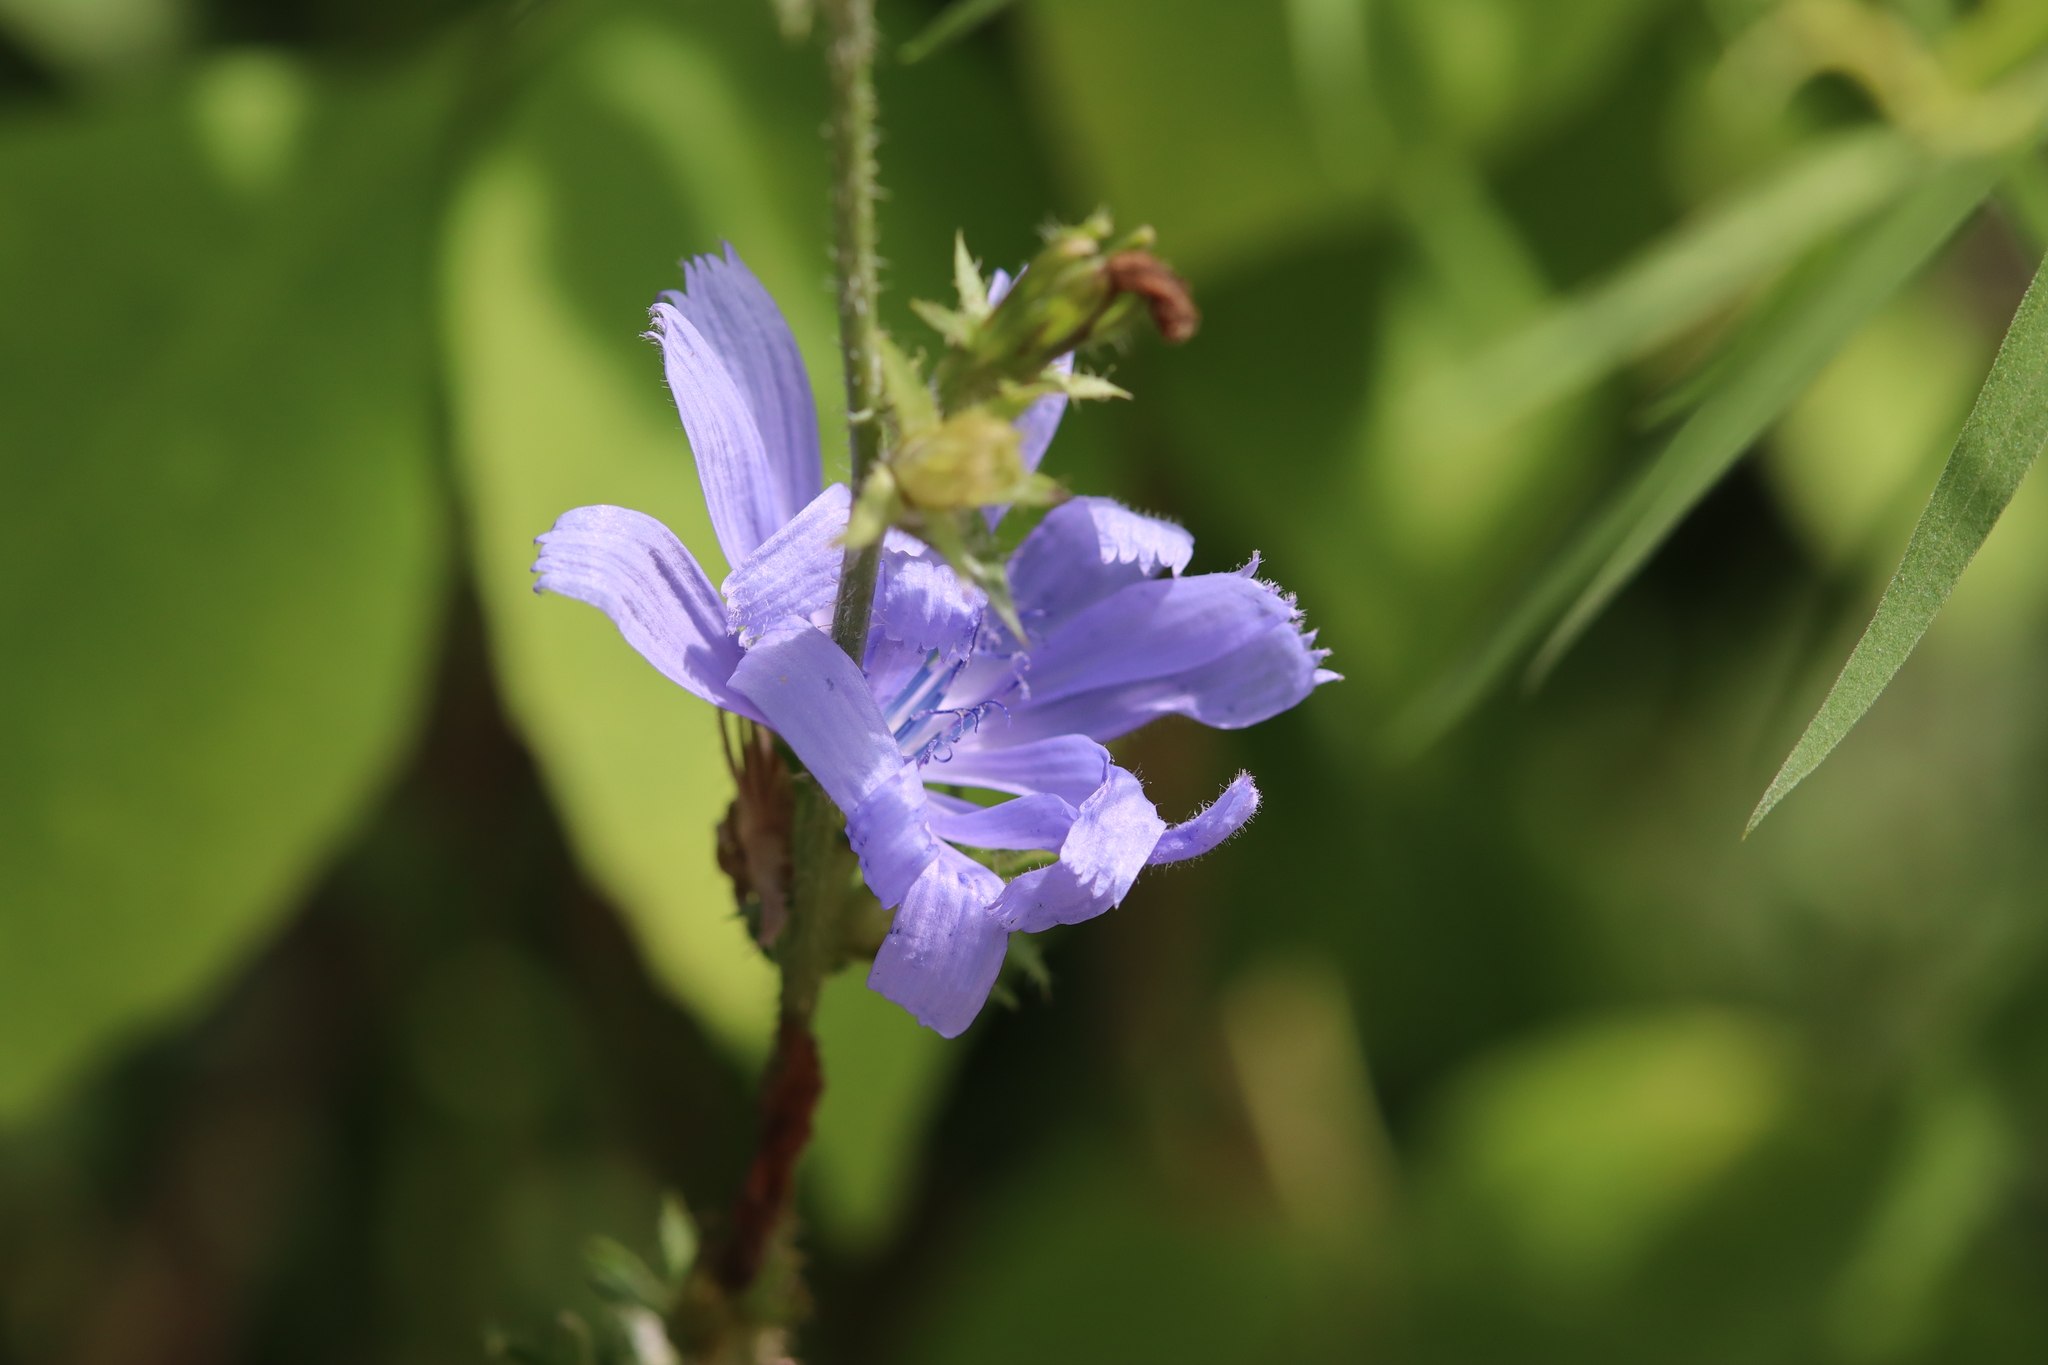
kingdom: Plantae
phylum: Tracheophyta
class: Magnoliopsida
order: Asterales
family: Asteraceae
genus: Cichorium
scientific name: Cichorium intybus
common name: Chicory
